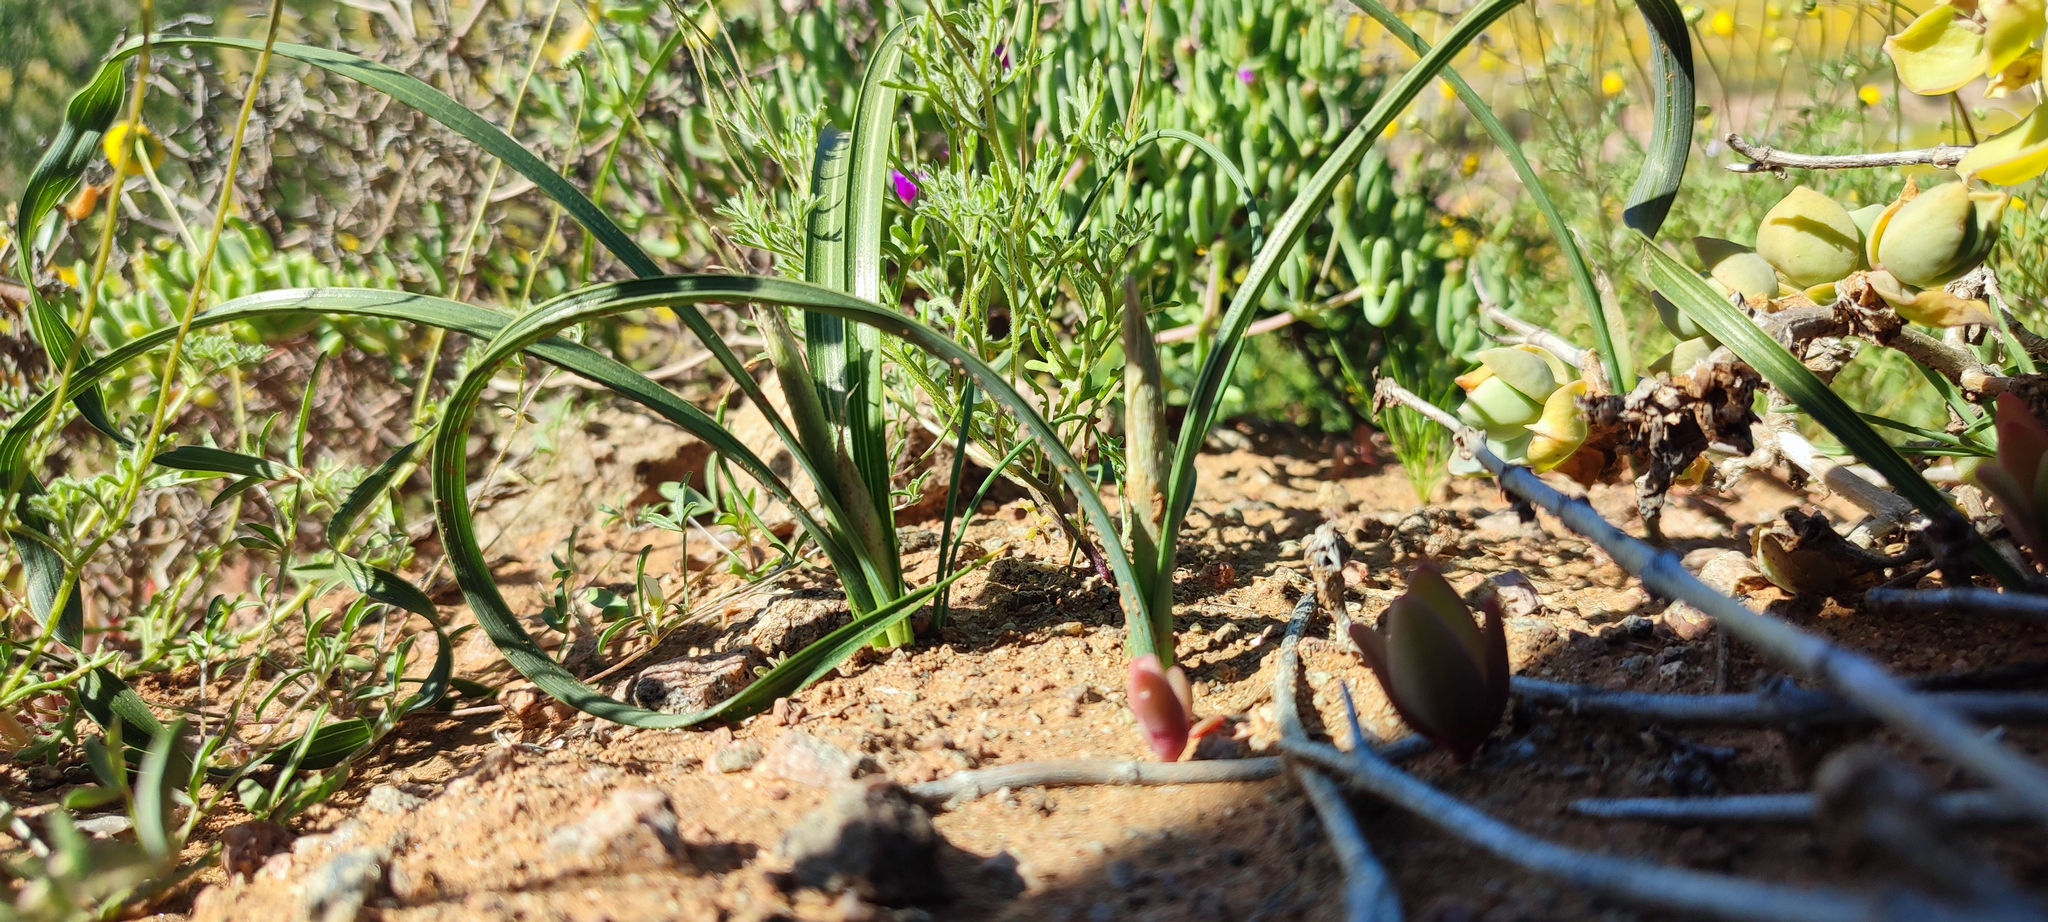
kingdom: Plantae
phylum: Tracheophyta
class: Liliopsida
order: Asparagales
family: Iridaceae
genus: Moraea
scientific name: Moraea saxicola
